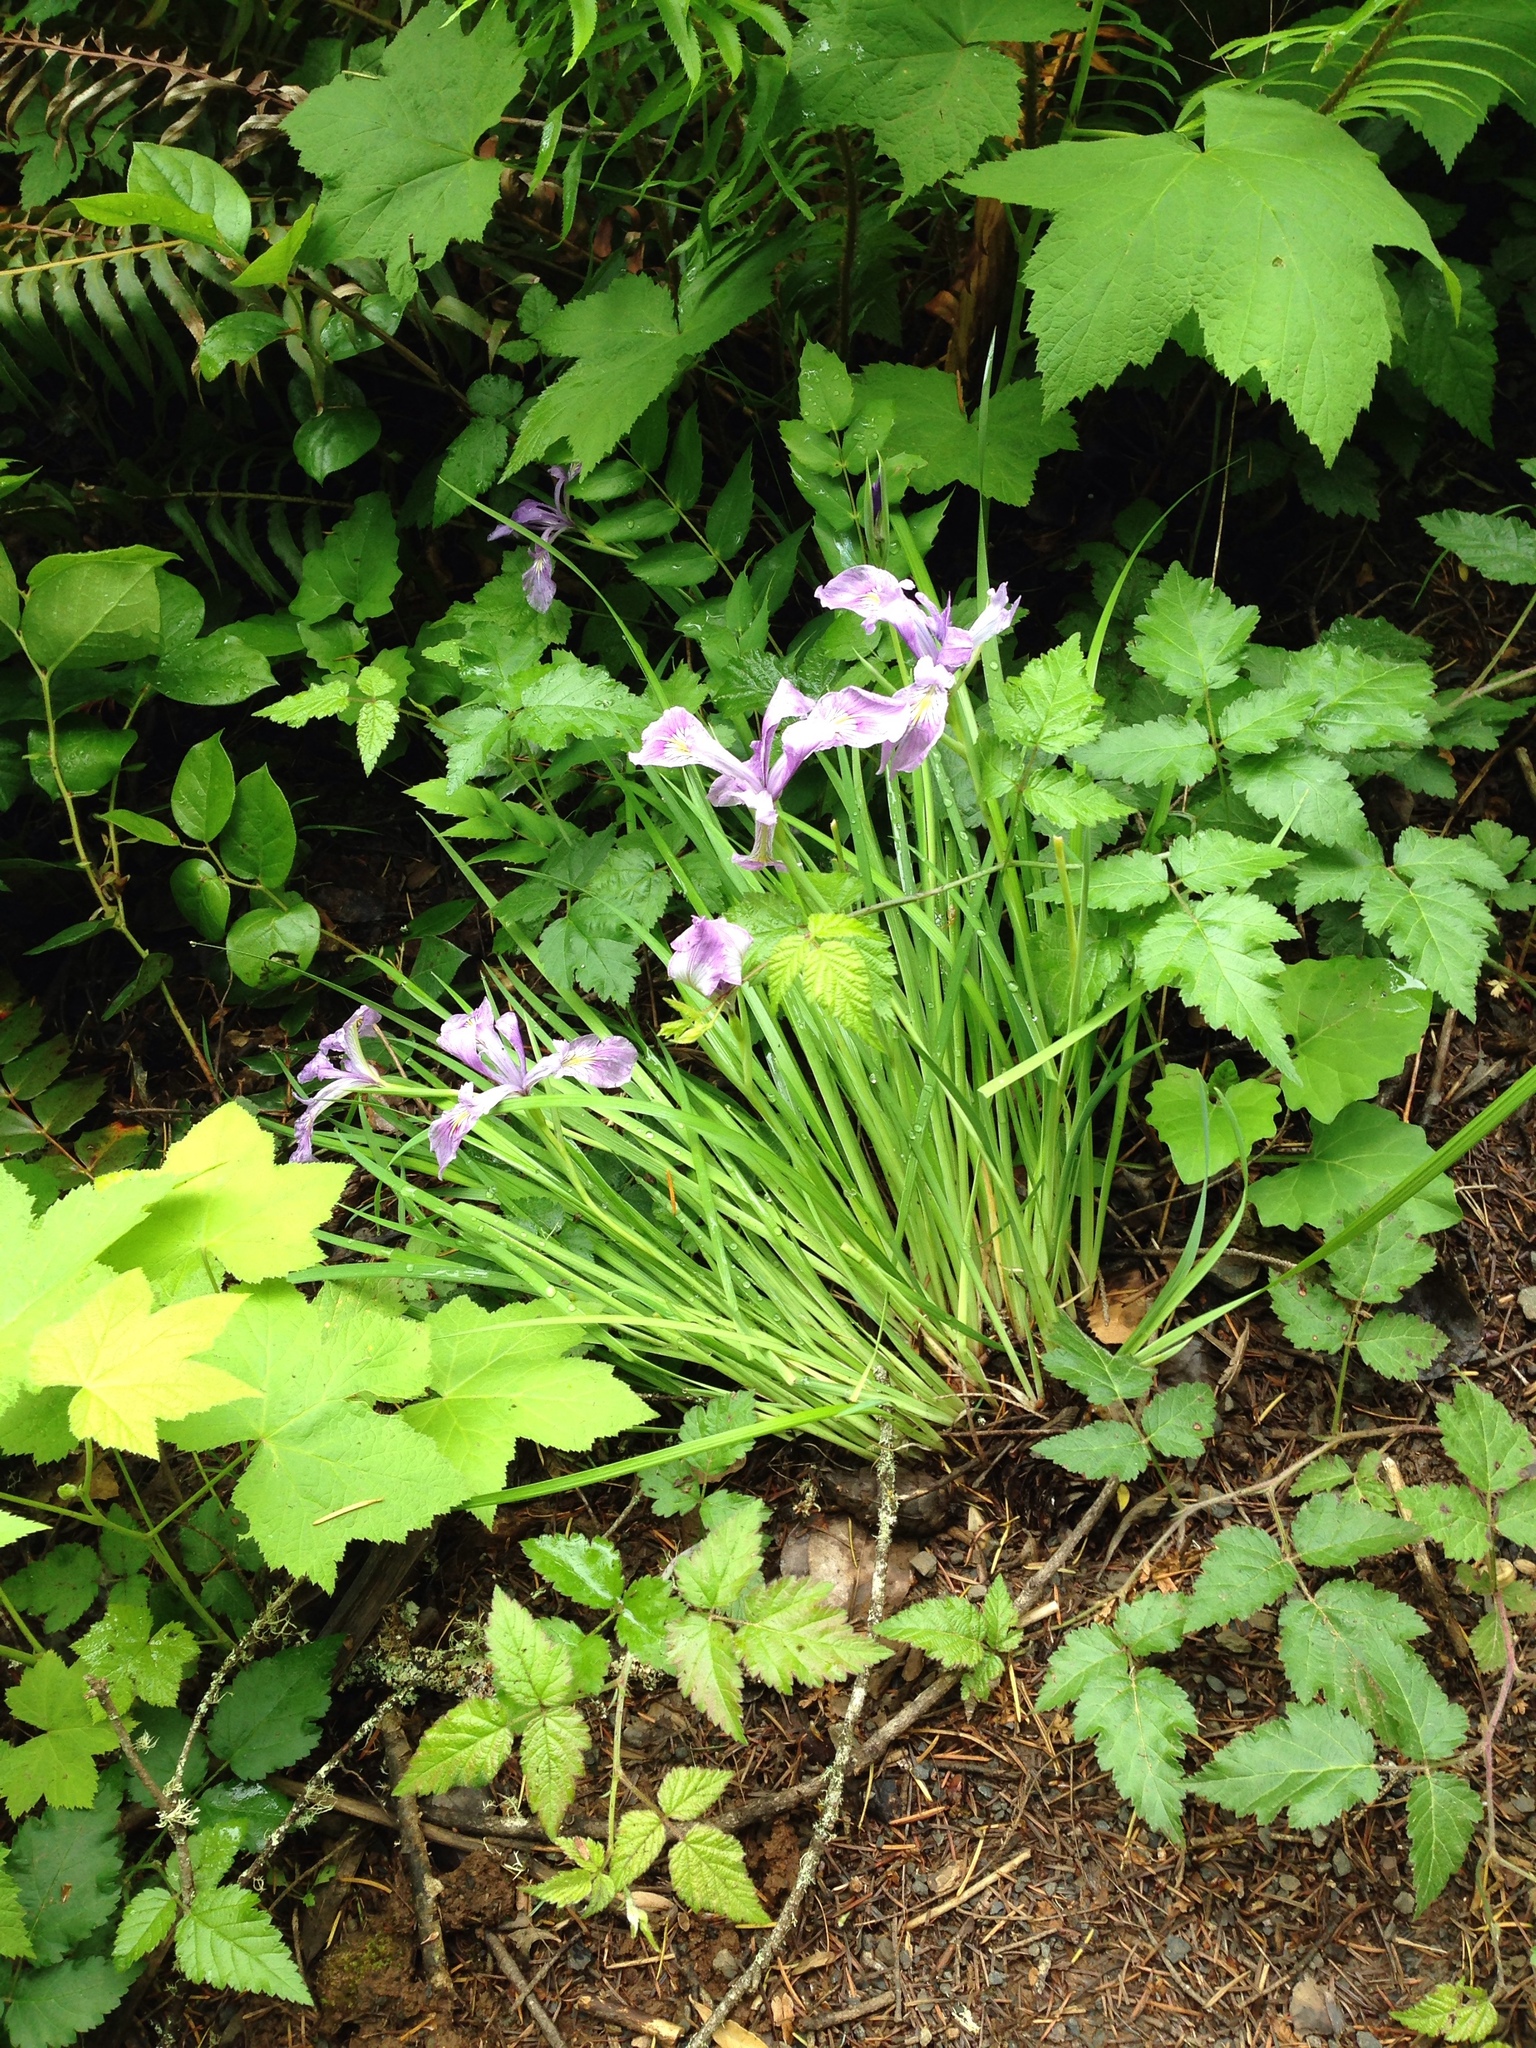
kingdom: Plantae
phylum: Tracheophyta
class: Liliopsida
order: Asparagales
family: Iridaceae
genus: Iris
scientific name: Iris tenax
